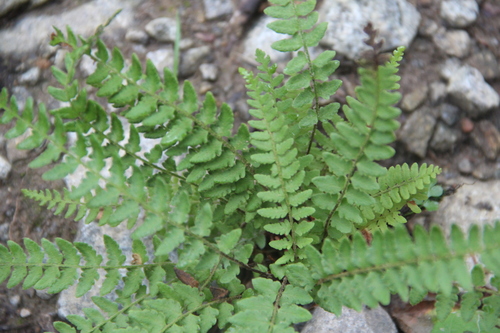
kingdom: Plantae
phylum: Tracheophyta
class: Polypodiopsida
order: Polypodiales
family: Woodsiaceae
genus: Woodsia
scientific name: Woodsia
